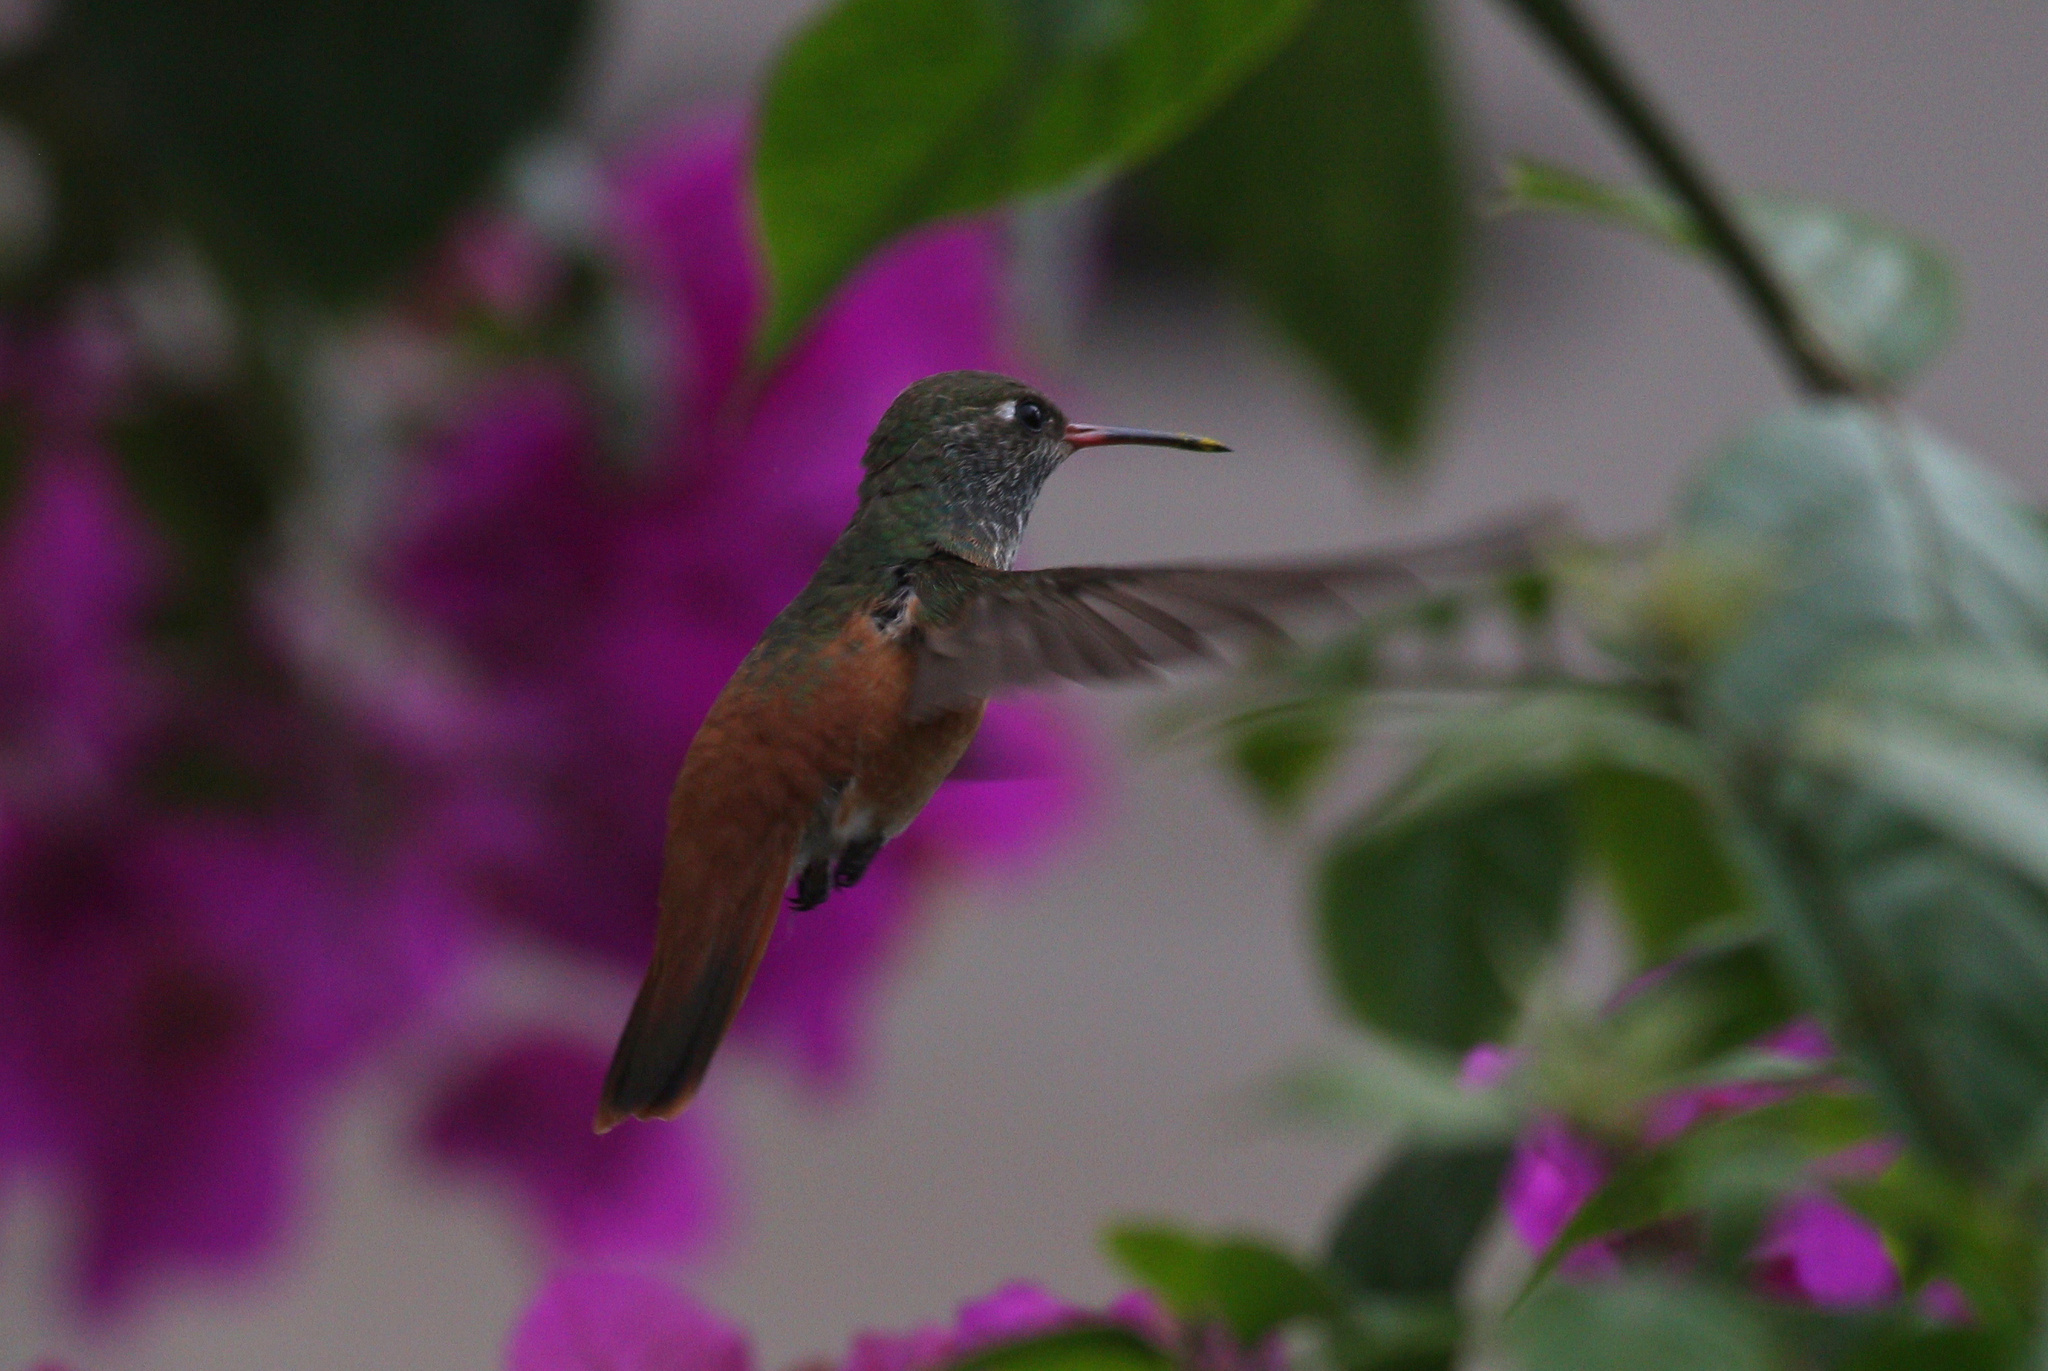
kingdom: Animalia
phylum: Chordata
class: Aves
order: Apodiformes
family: Trochilidae
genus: Amazilis
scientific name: Amazilis amazilia
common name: Amazilia hummingbird
